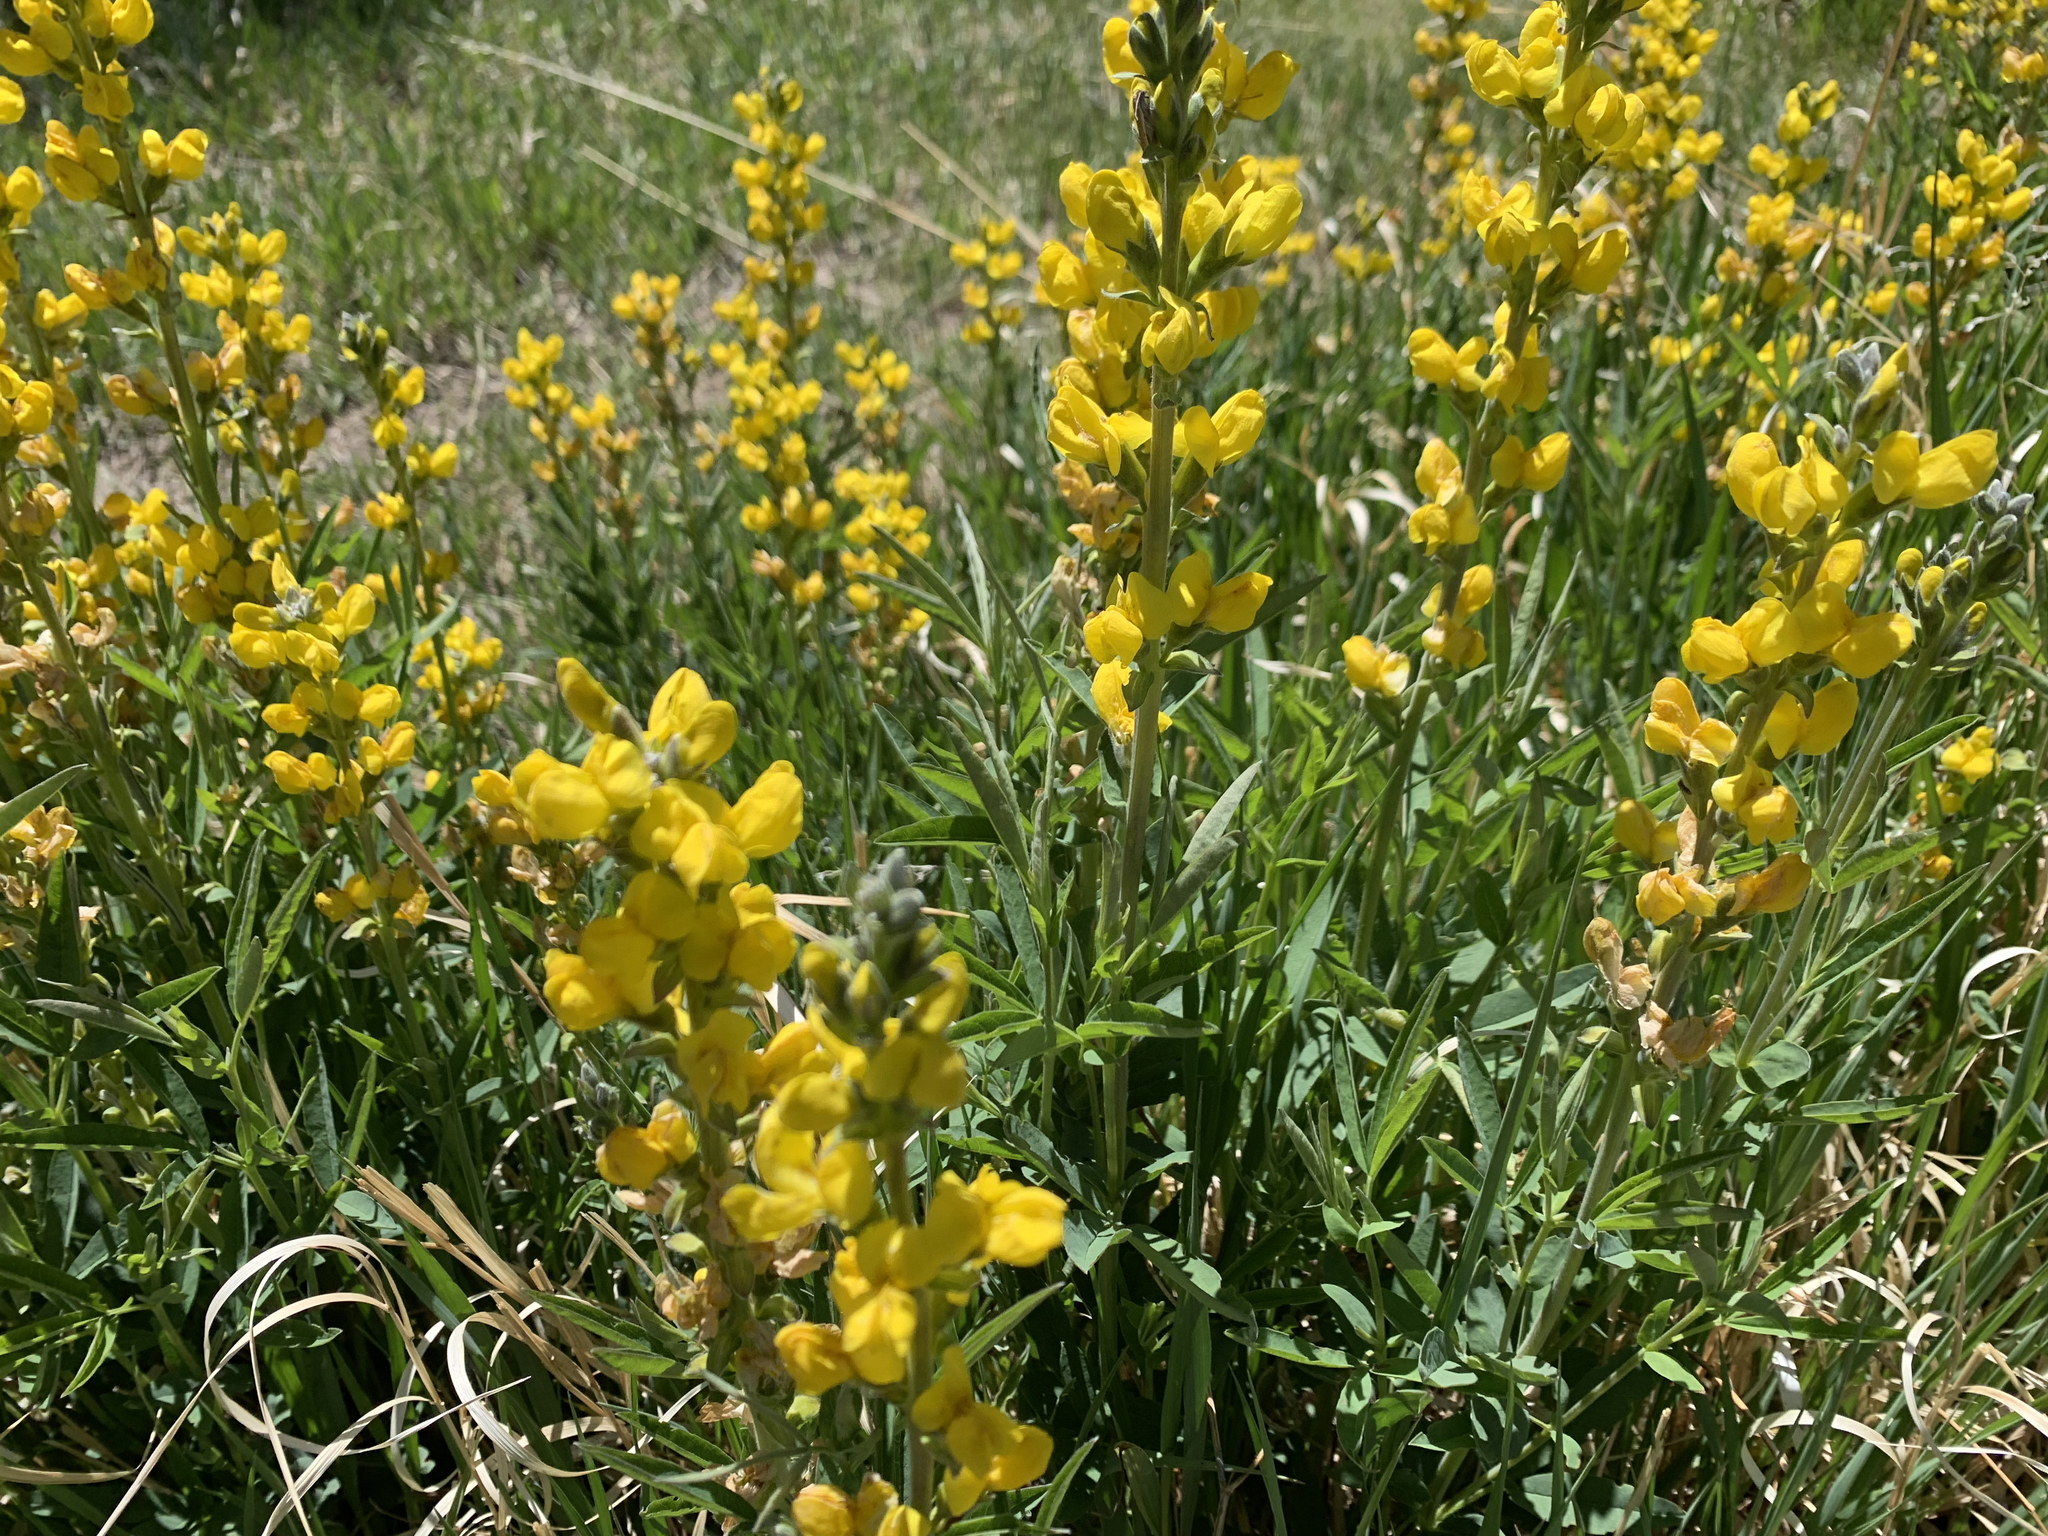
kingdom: Plantae
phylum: Tracheophyta
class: Magnoliopsida
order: Fabales
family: Fabaceae
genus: Thermopsis
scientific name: Thermopsis montana
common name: False lupin
